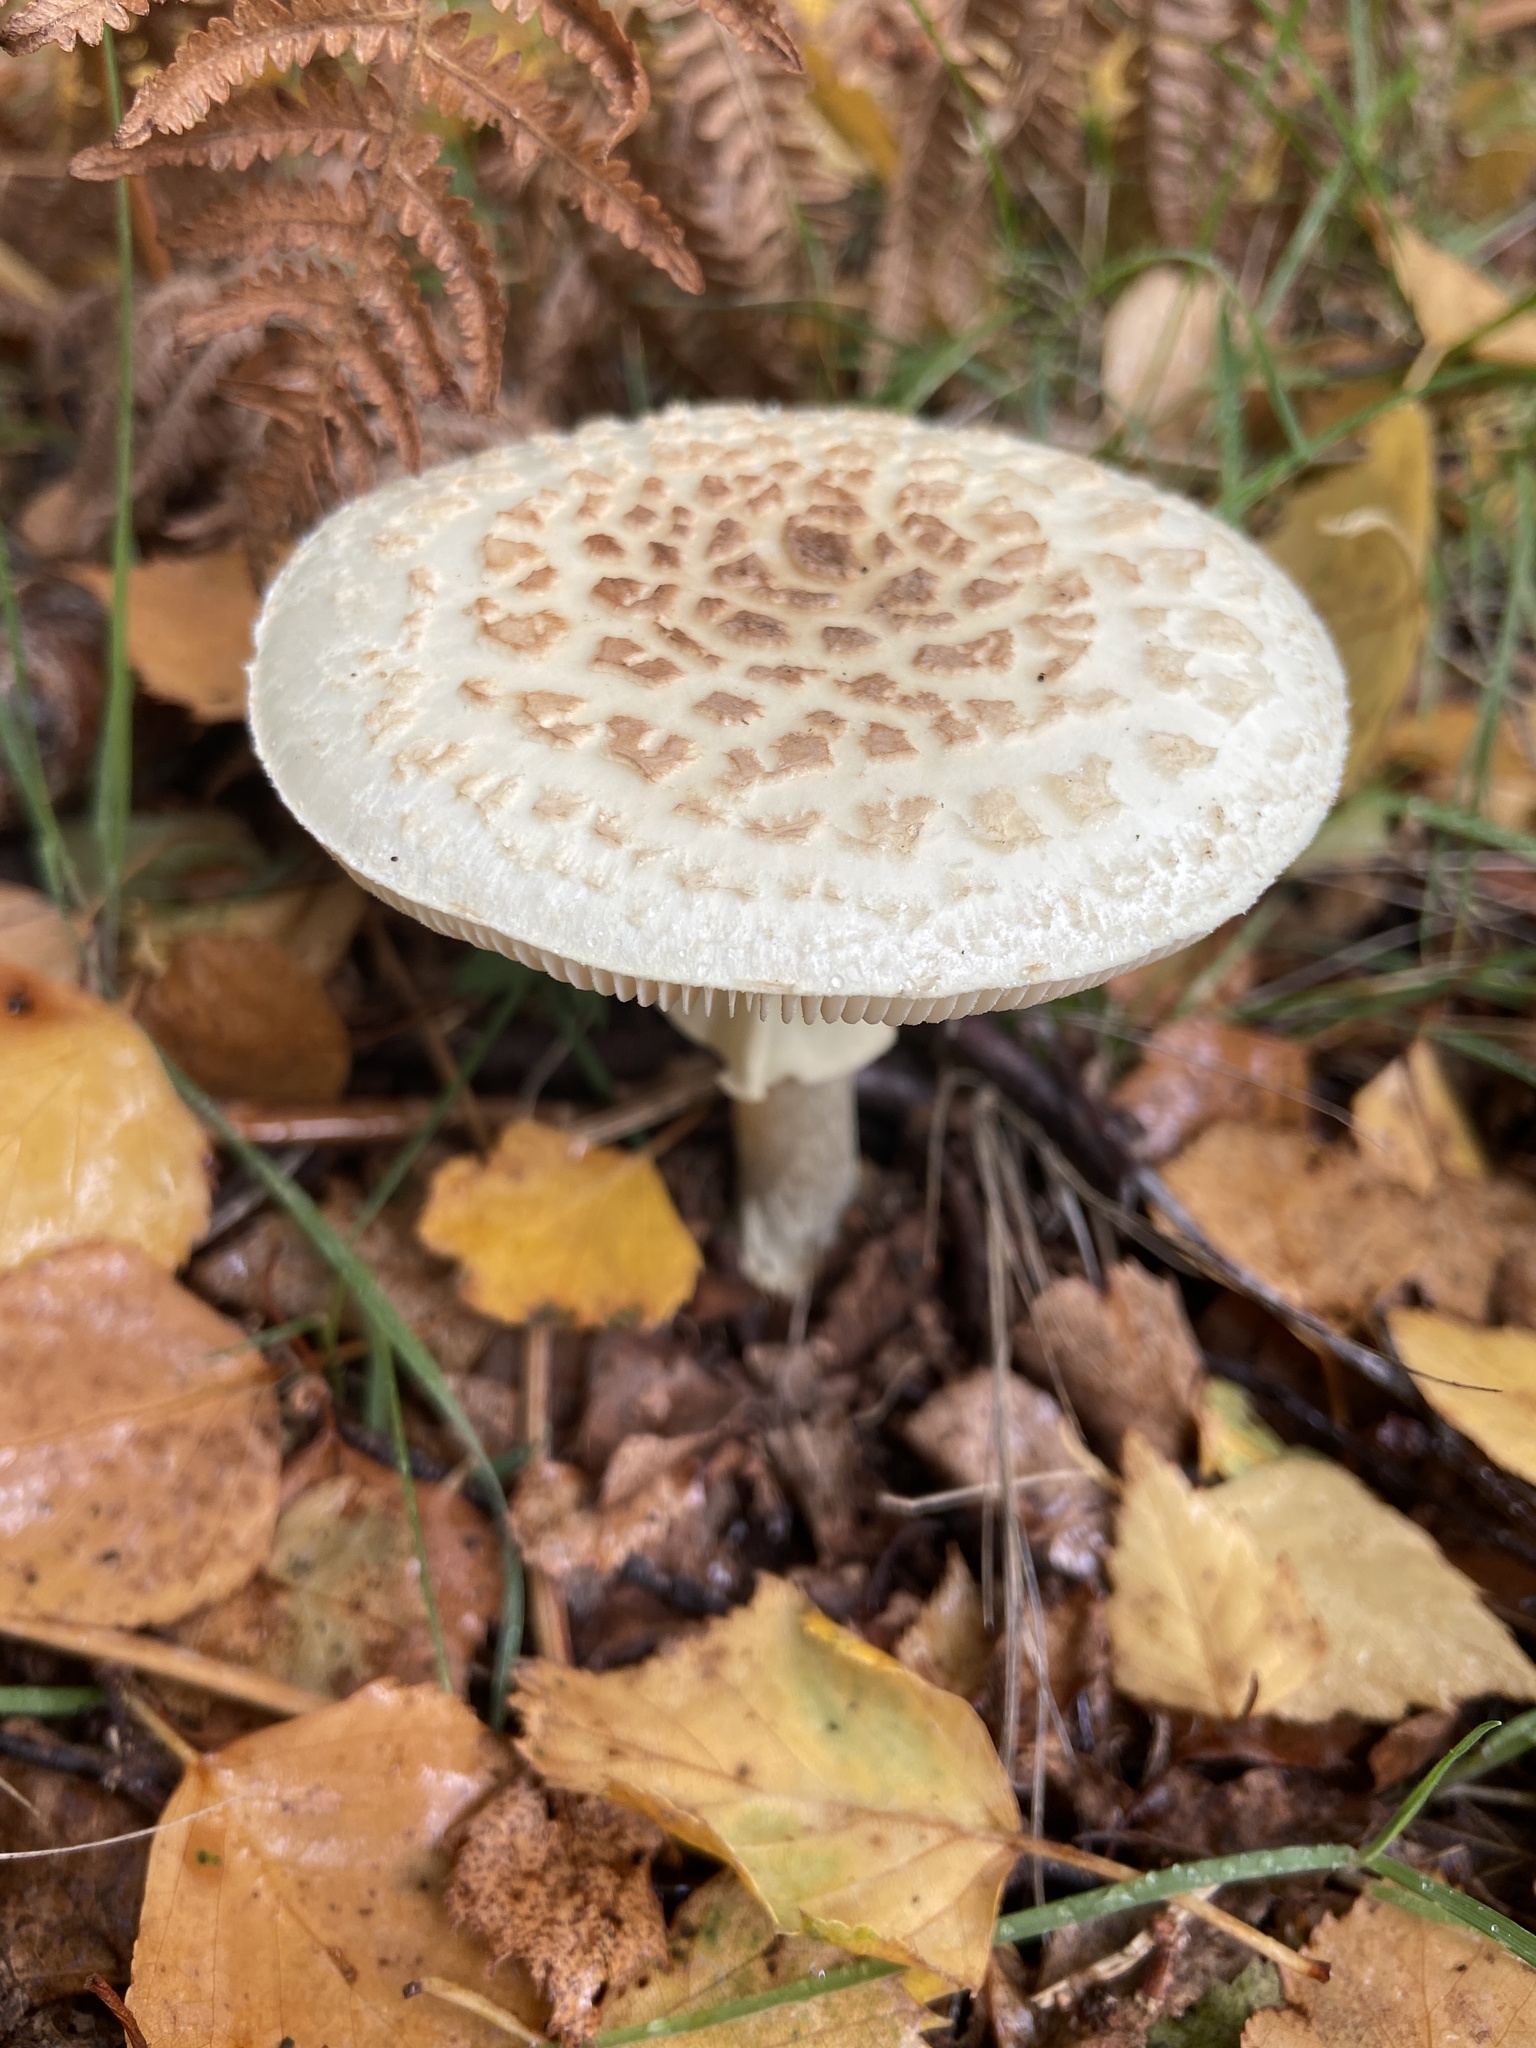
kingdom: Fungi
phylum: Basidiomycota
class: Agaricomycetes
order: Agaricales
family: Amanitaceae
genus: Amanita
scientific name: Amanita citrina
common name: False death-cap
